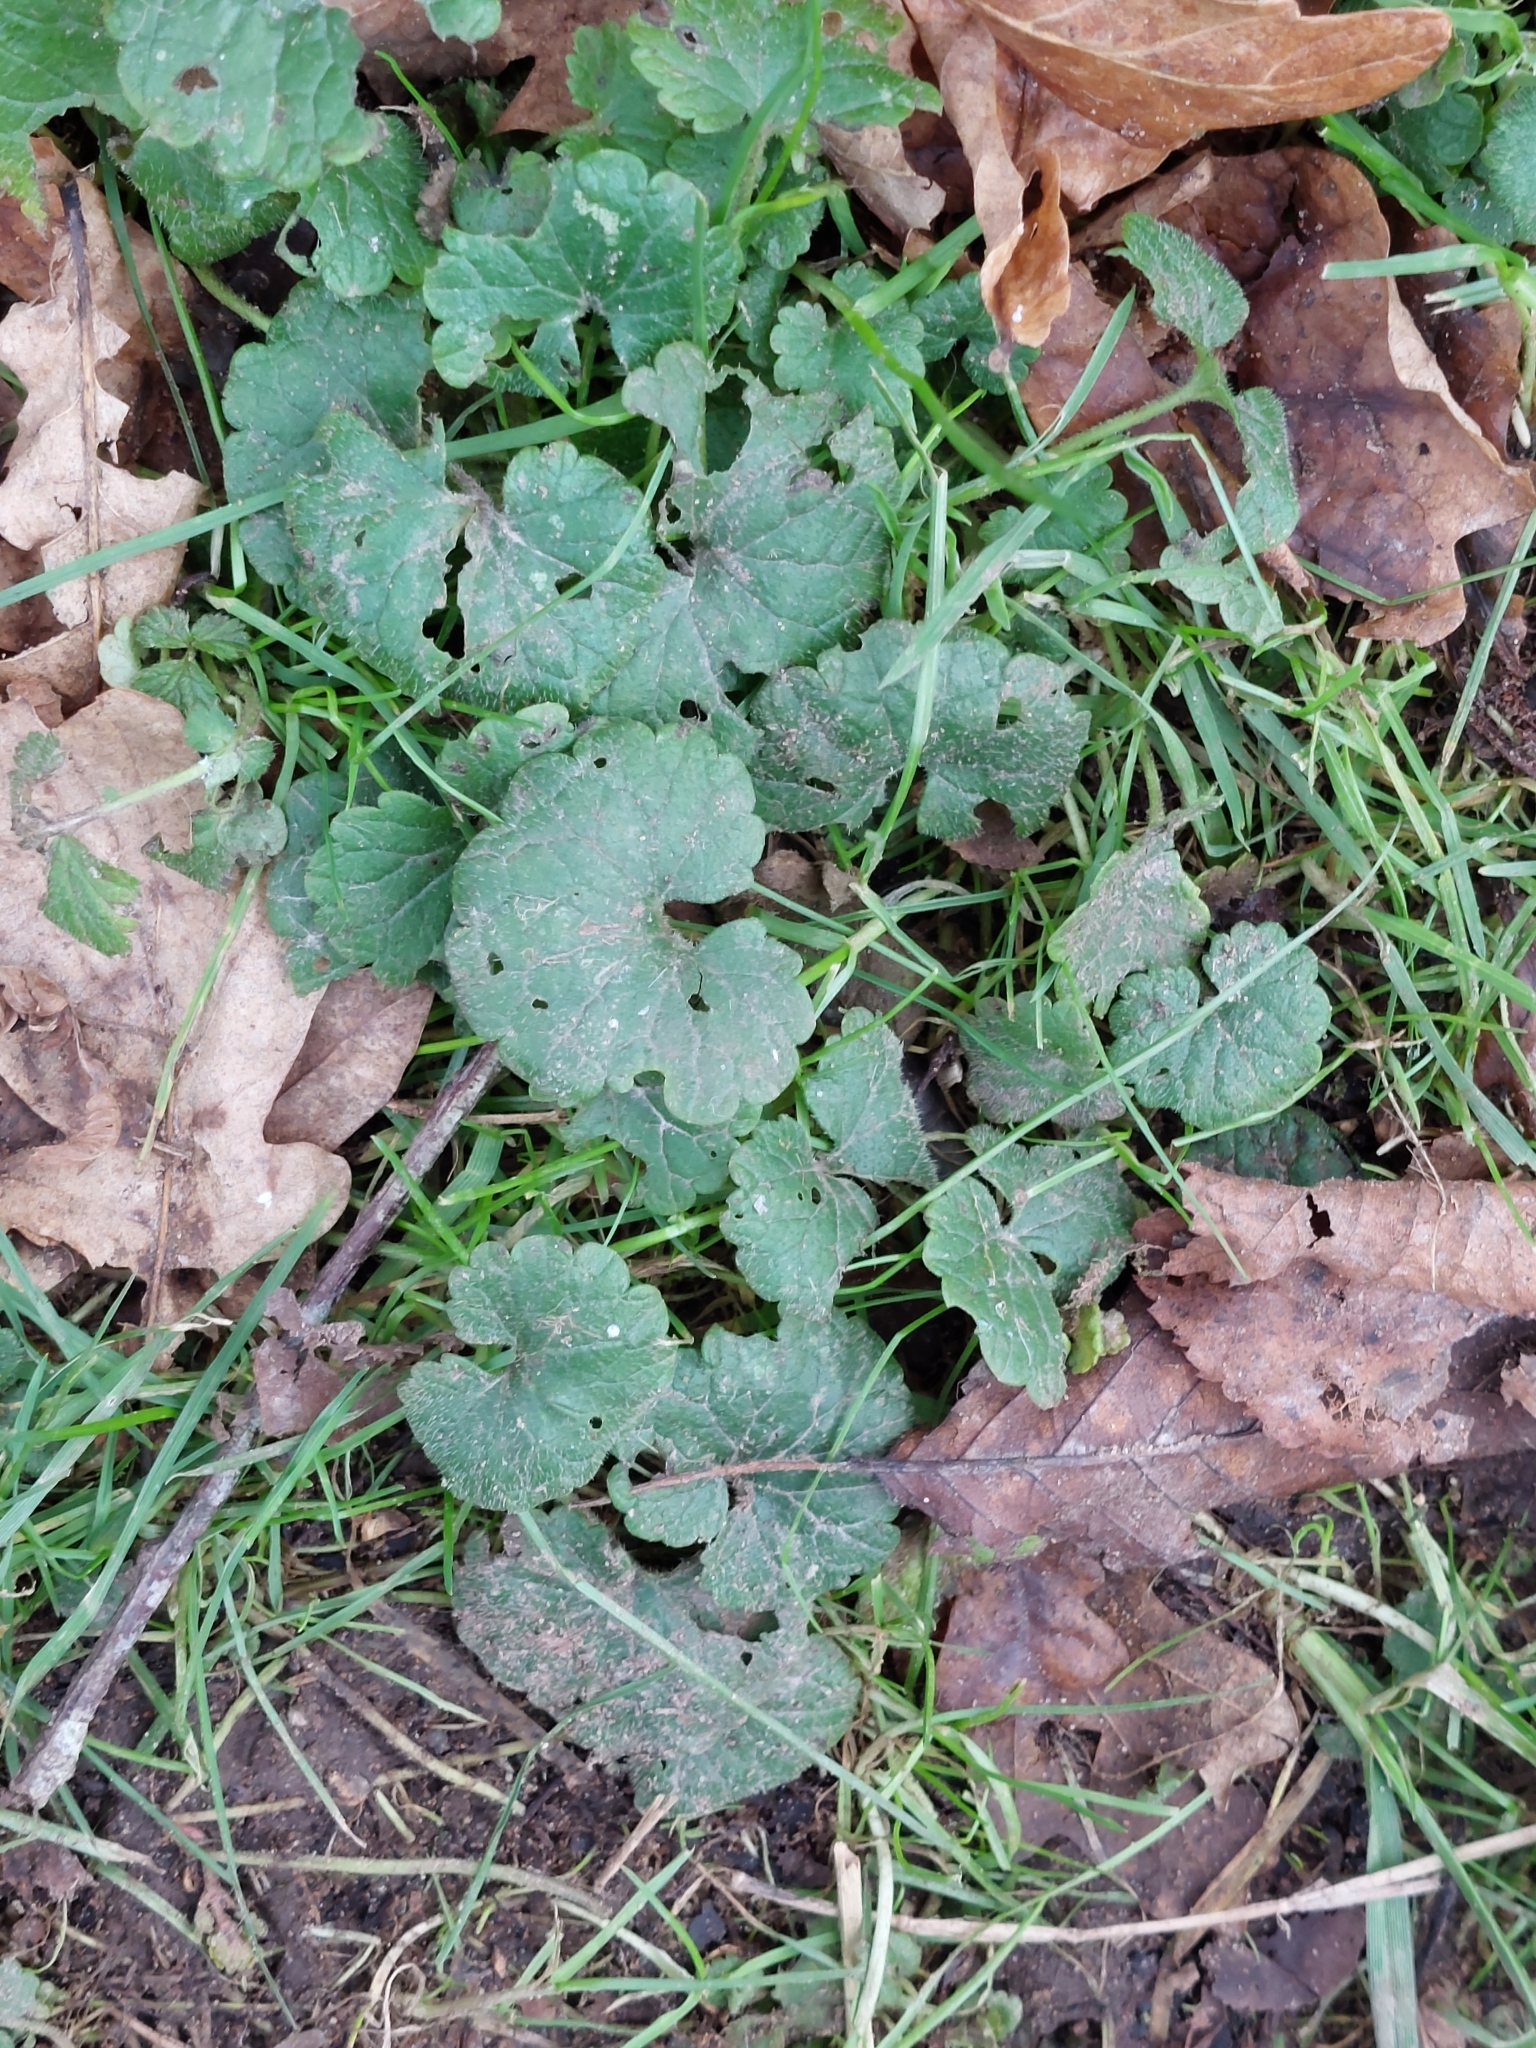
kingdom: Plantae
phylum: Tracheophyta
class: Magnoliopsida
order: Lamiales
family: Lamiaceae
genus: Glechoma
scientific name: Glechoma hederacea
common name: Ground ivy
